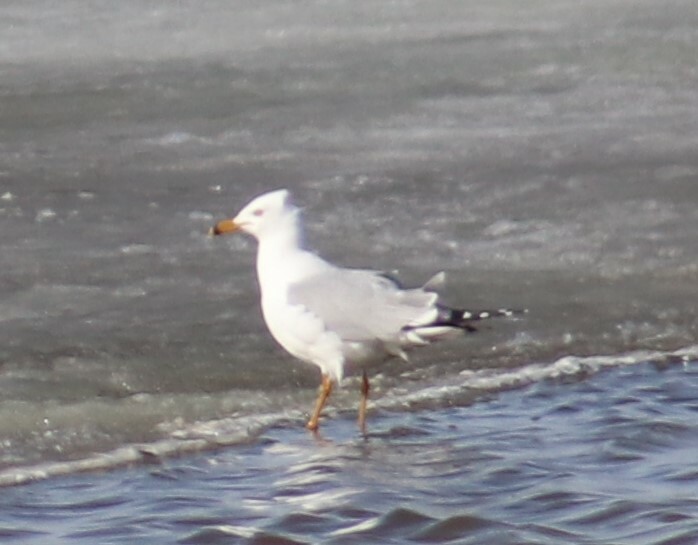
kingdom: Animalia
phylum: Chordata
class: Aves
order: Charadriiformes
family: Laridae
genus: Larus
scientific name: Larus delawarensis
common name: Ring-billed gull
